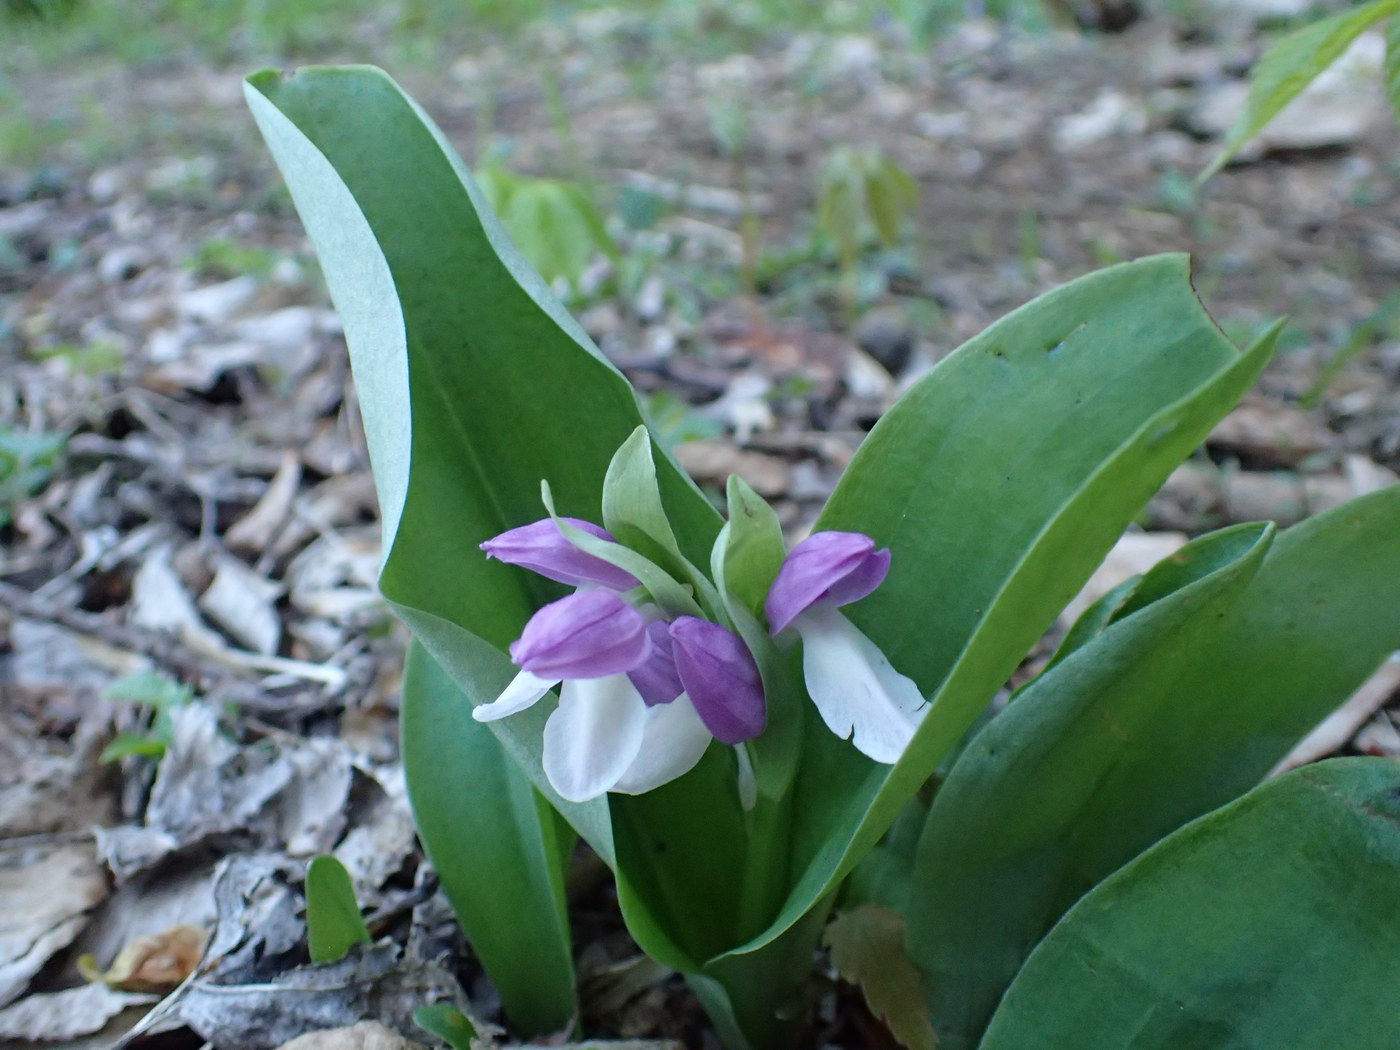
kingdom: Plantae
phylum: Tracheophyta
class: Liliopsida
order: Asparagales
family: Orchidaceae
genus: Galearis
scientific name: Galearis spectabilis
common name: Purple-hooded orchis
